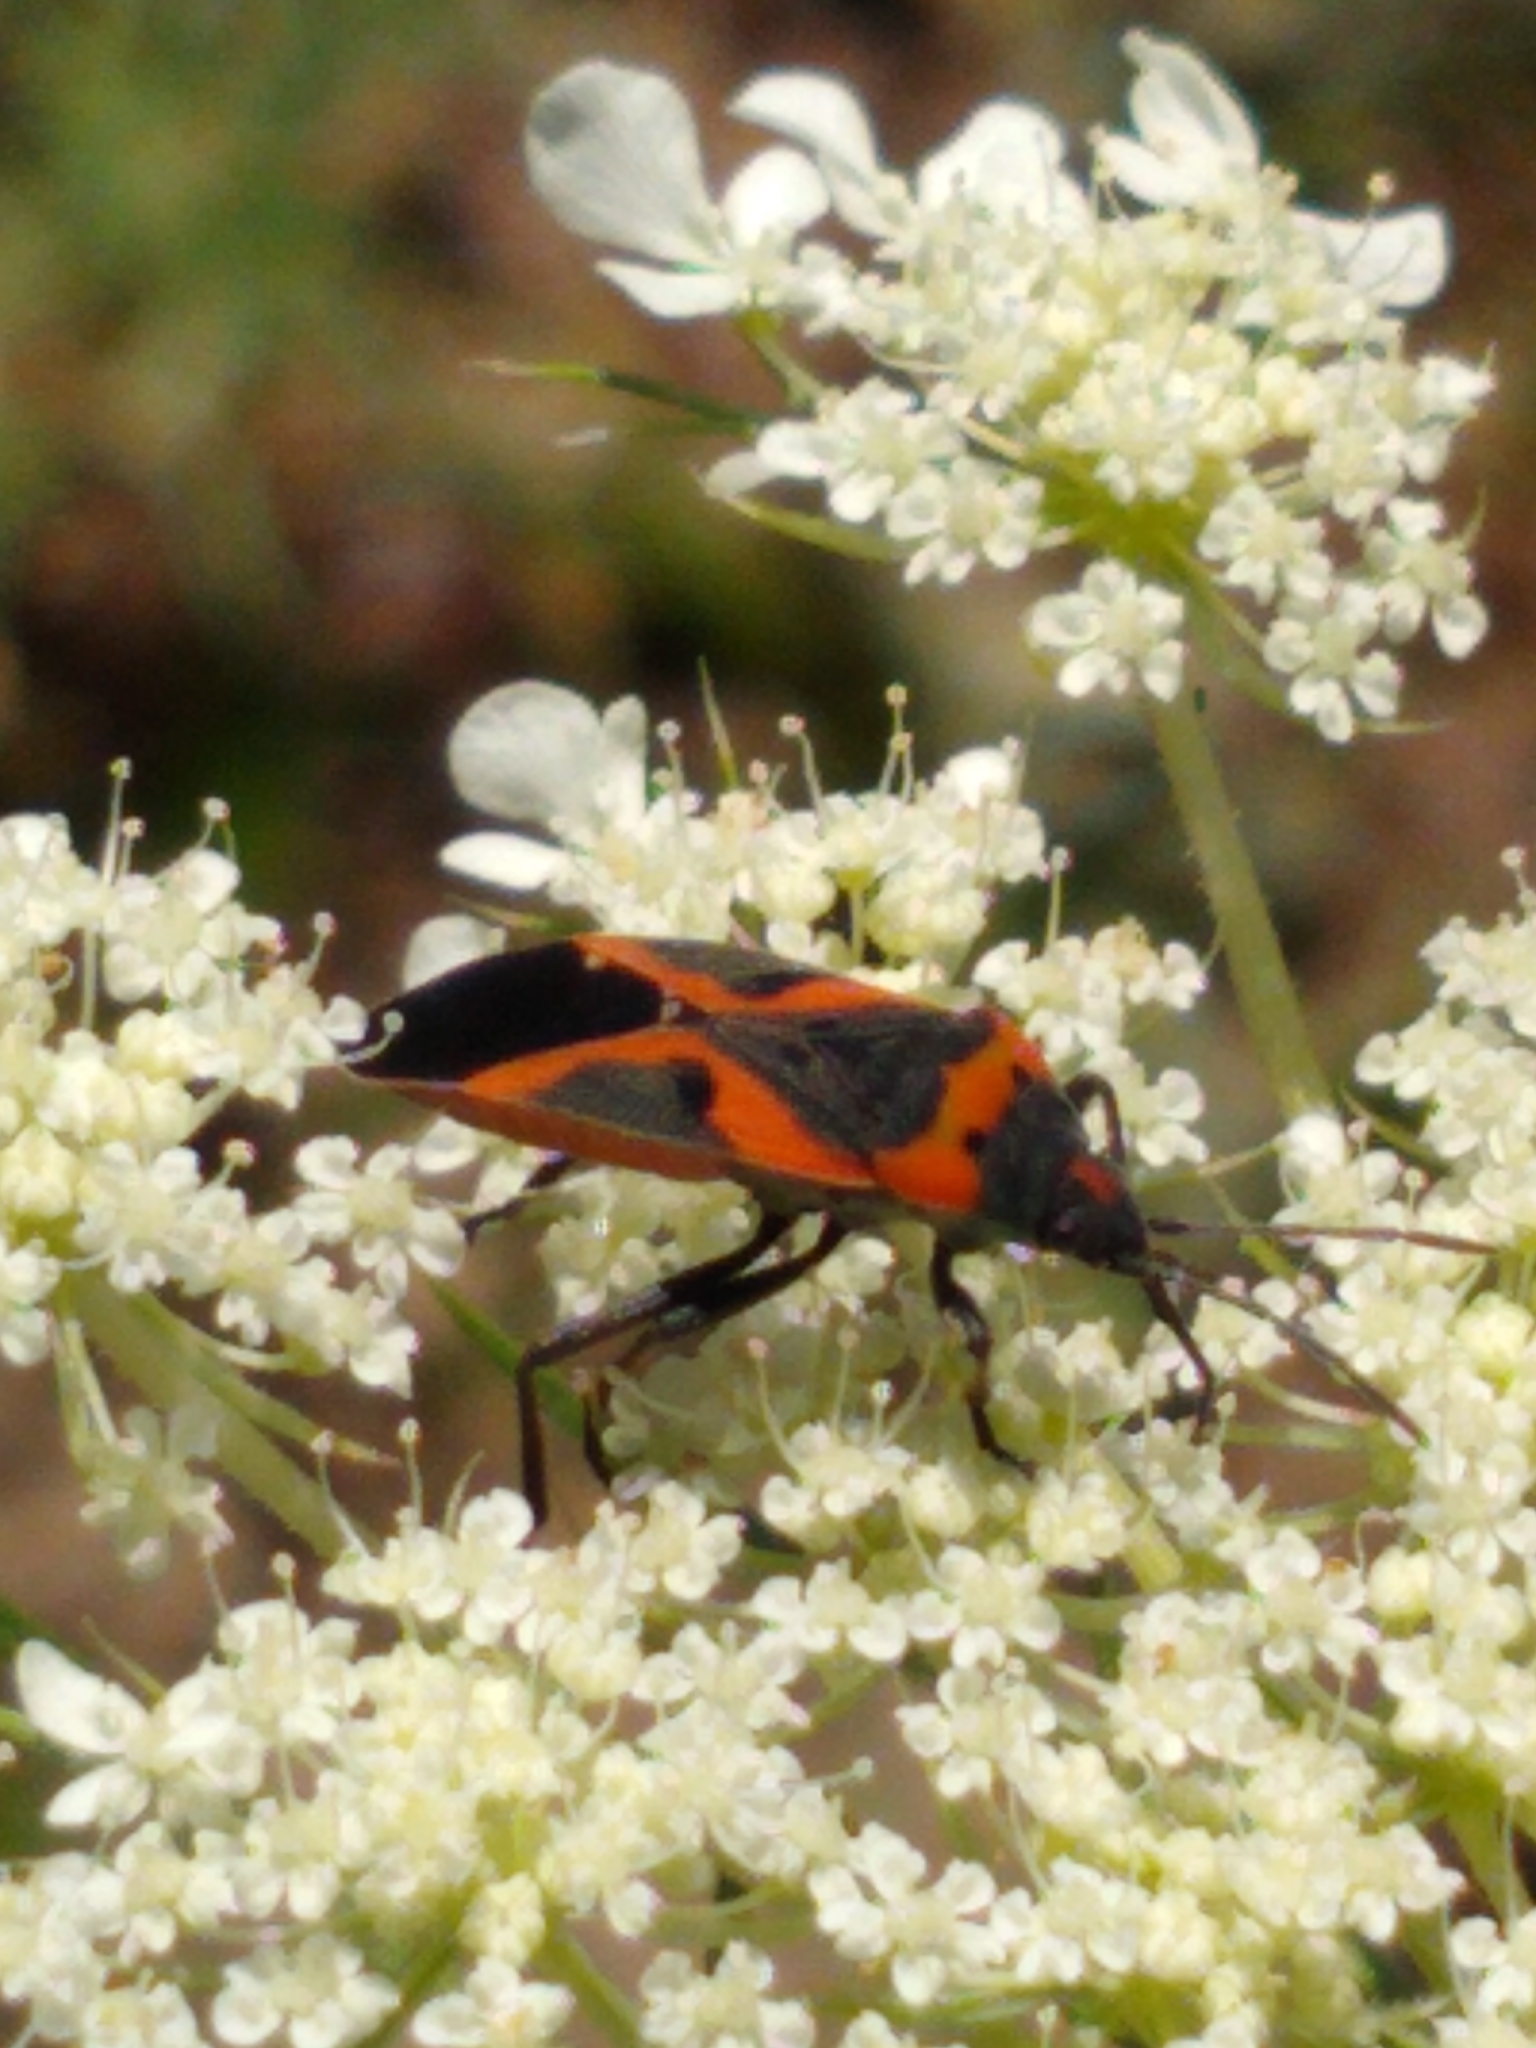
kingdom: Animalia
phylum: Arthropoda
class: Insecta
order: Hemiptera
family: Lygaeidae
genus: Lygaeus
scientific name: Lygaeus kalmii
